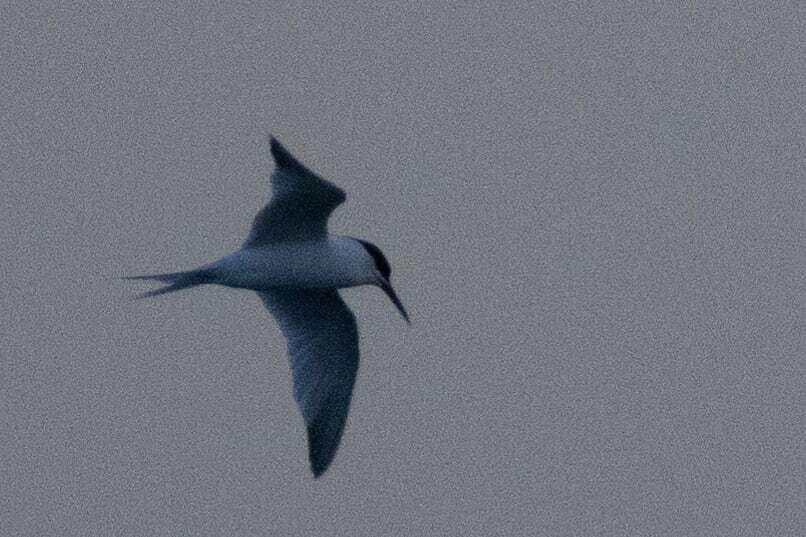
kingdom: Animalia
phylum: Chordata
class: Aves
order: Charadriiformes
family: Laridae
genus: Thalasseus
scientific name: Thalasseus sandvicensis
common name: Sandwich tern
